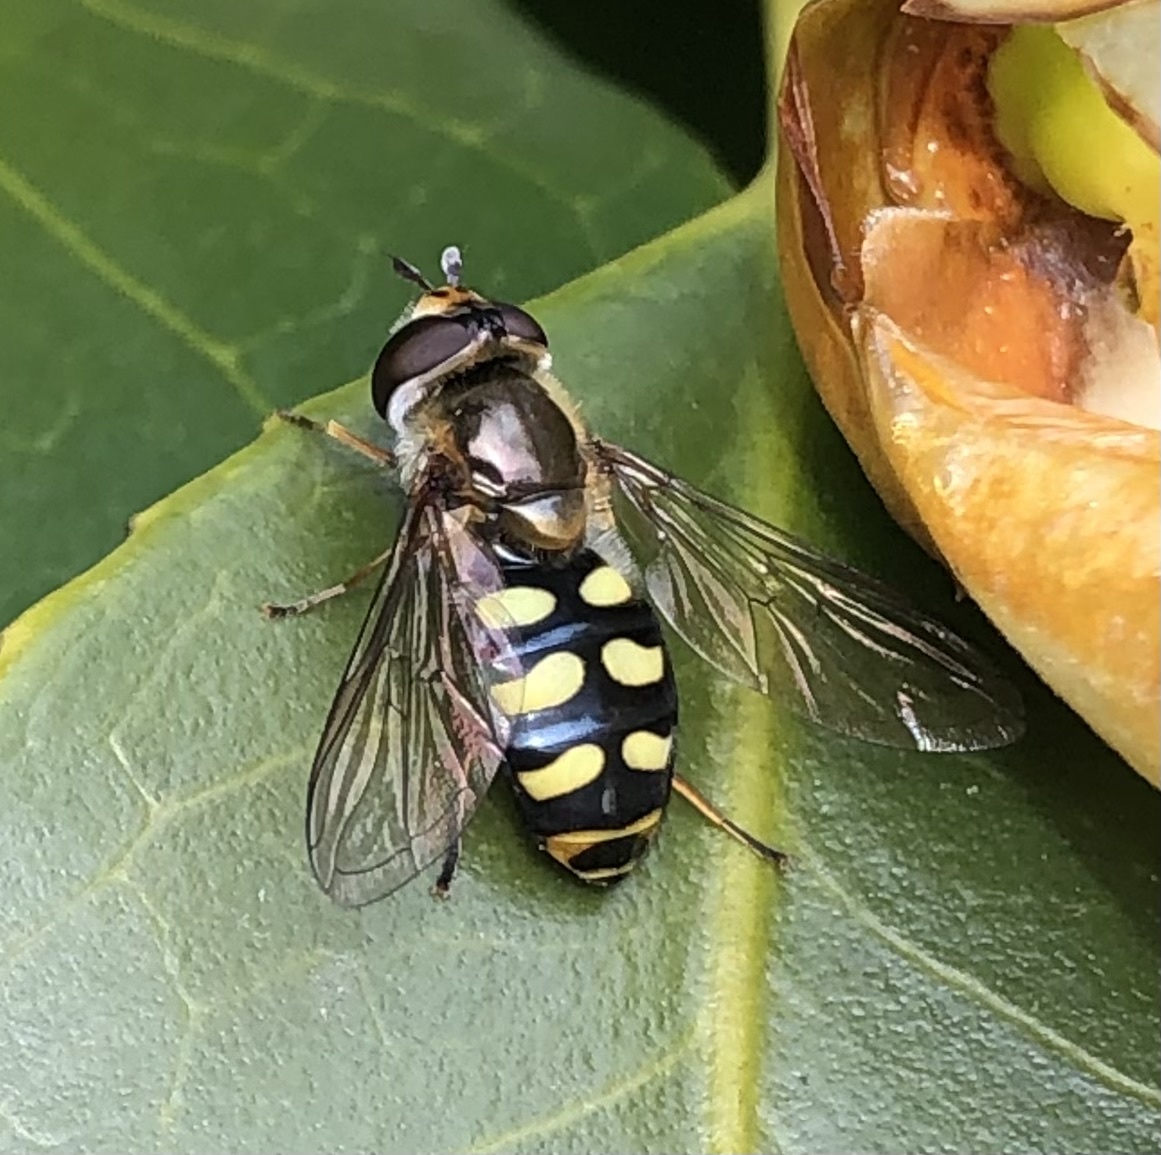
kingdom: Animalia
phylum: Arthropoda
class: Insecta
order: Diptera
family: Syrphidae
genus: Eupeodes
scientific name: Eupeodes luniger
